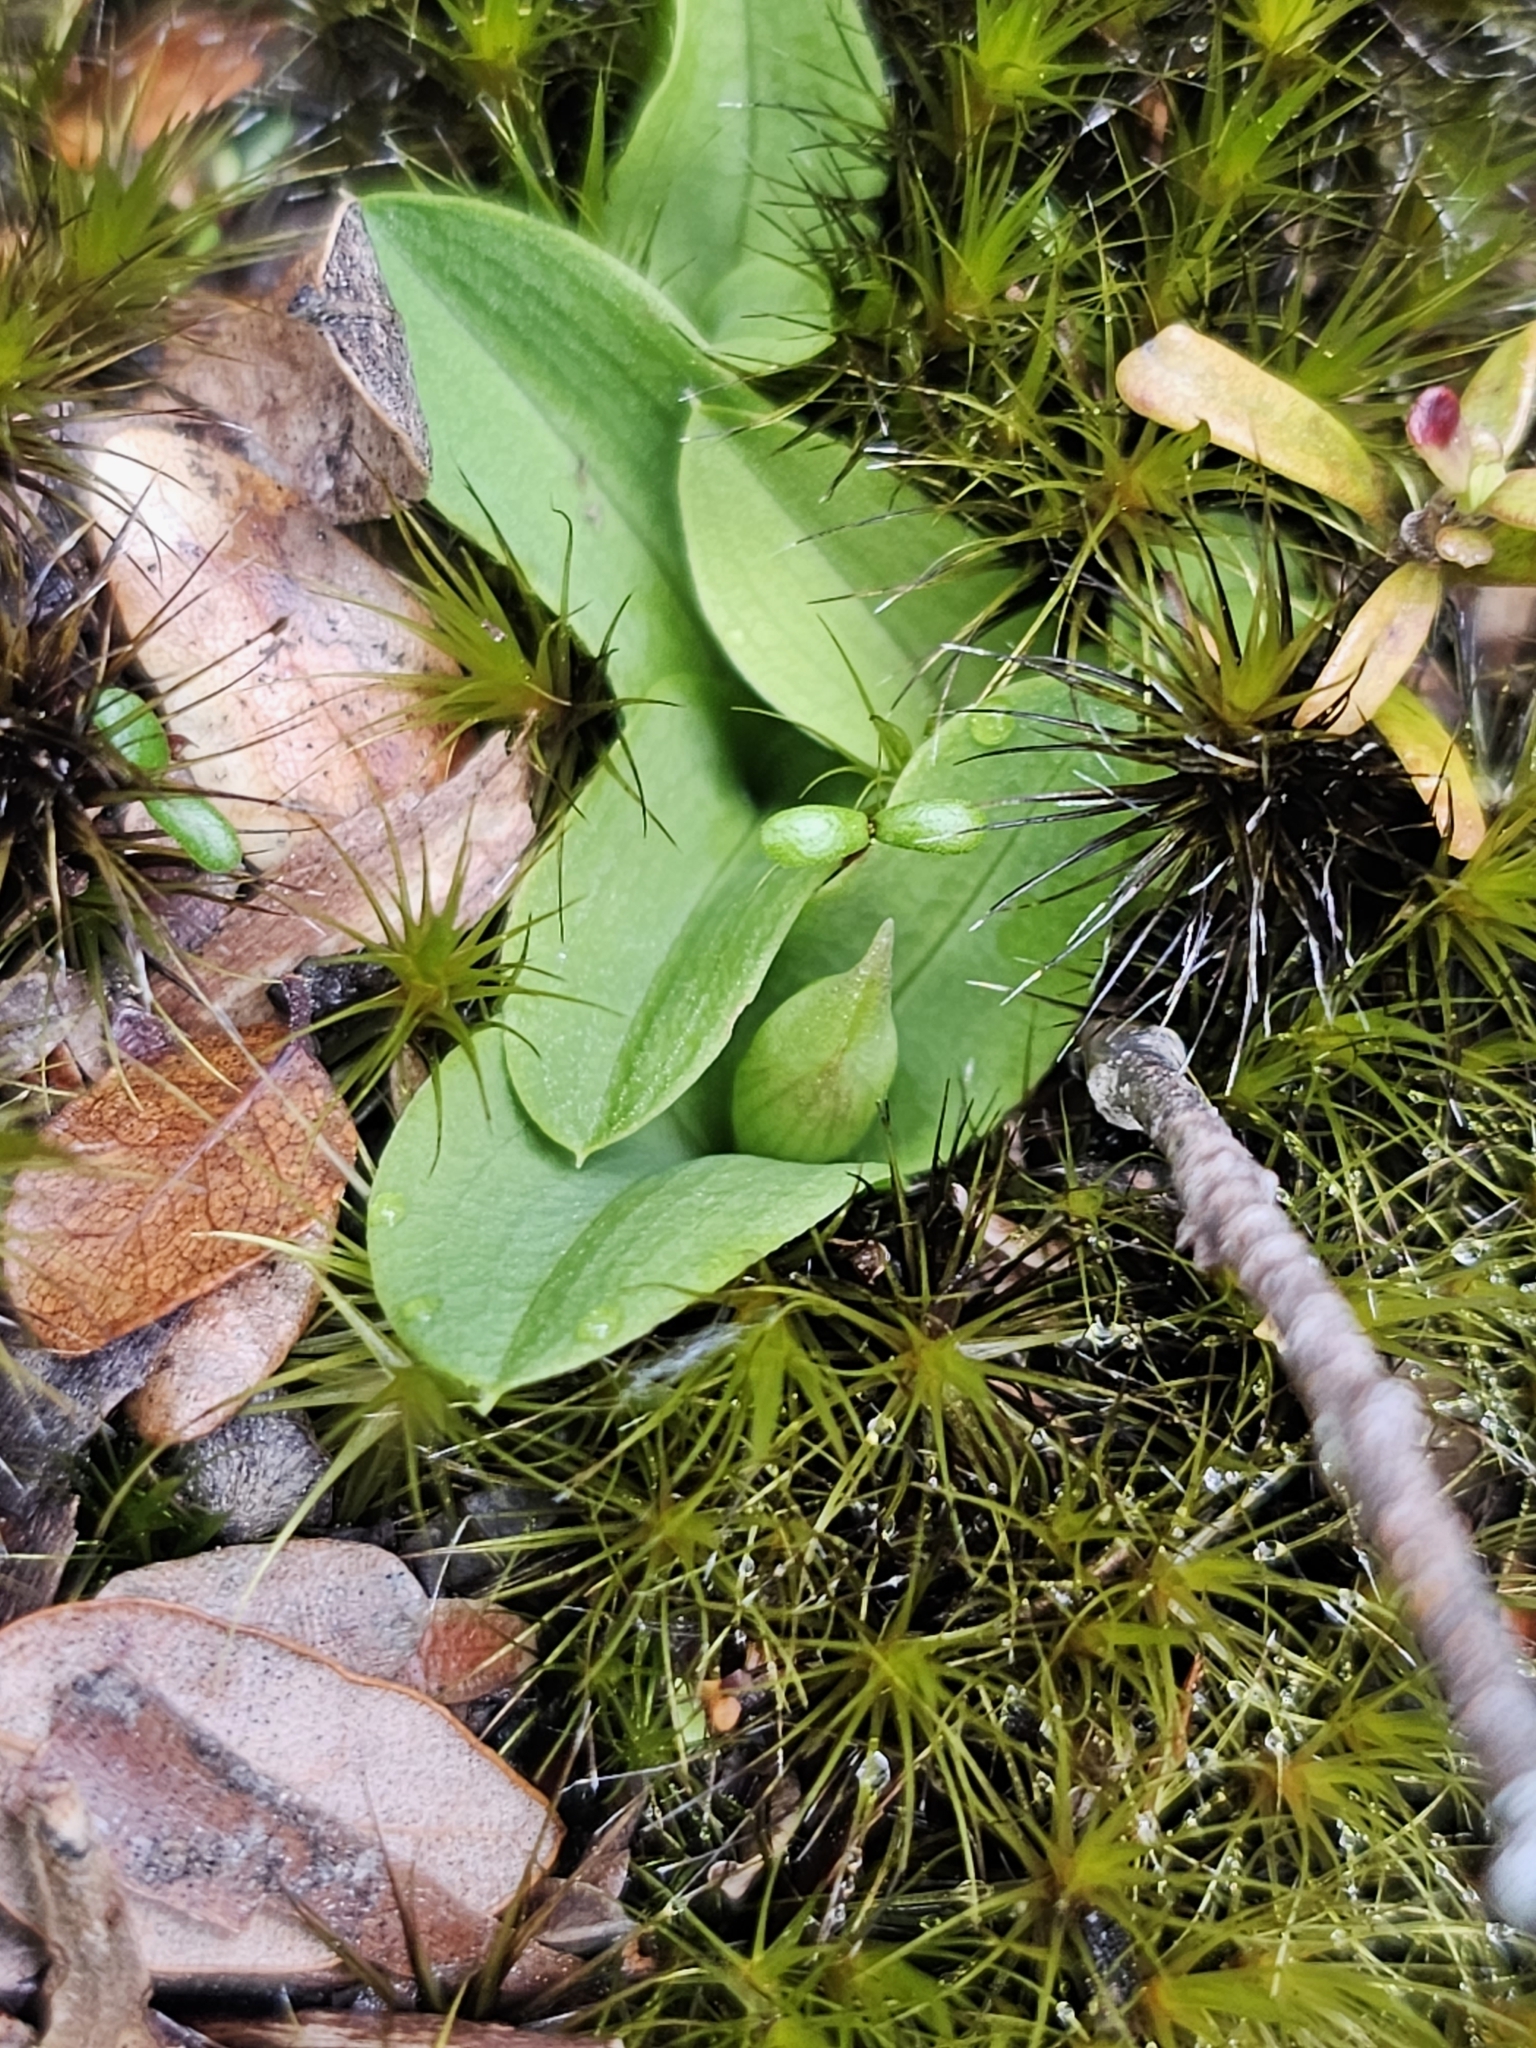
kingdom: Plantae
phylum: Tracheophyta
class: Liliopsida
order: Asparagales
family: Orchidaceae
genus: Chiloglottis
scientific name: Chiloglottis cornuta
